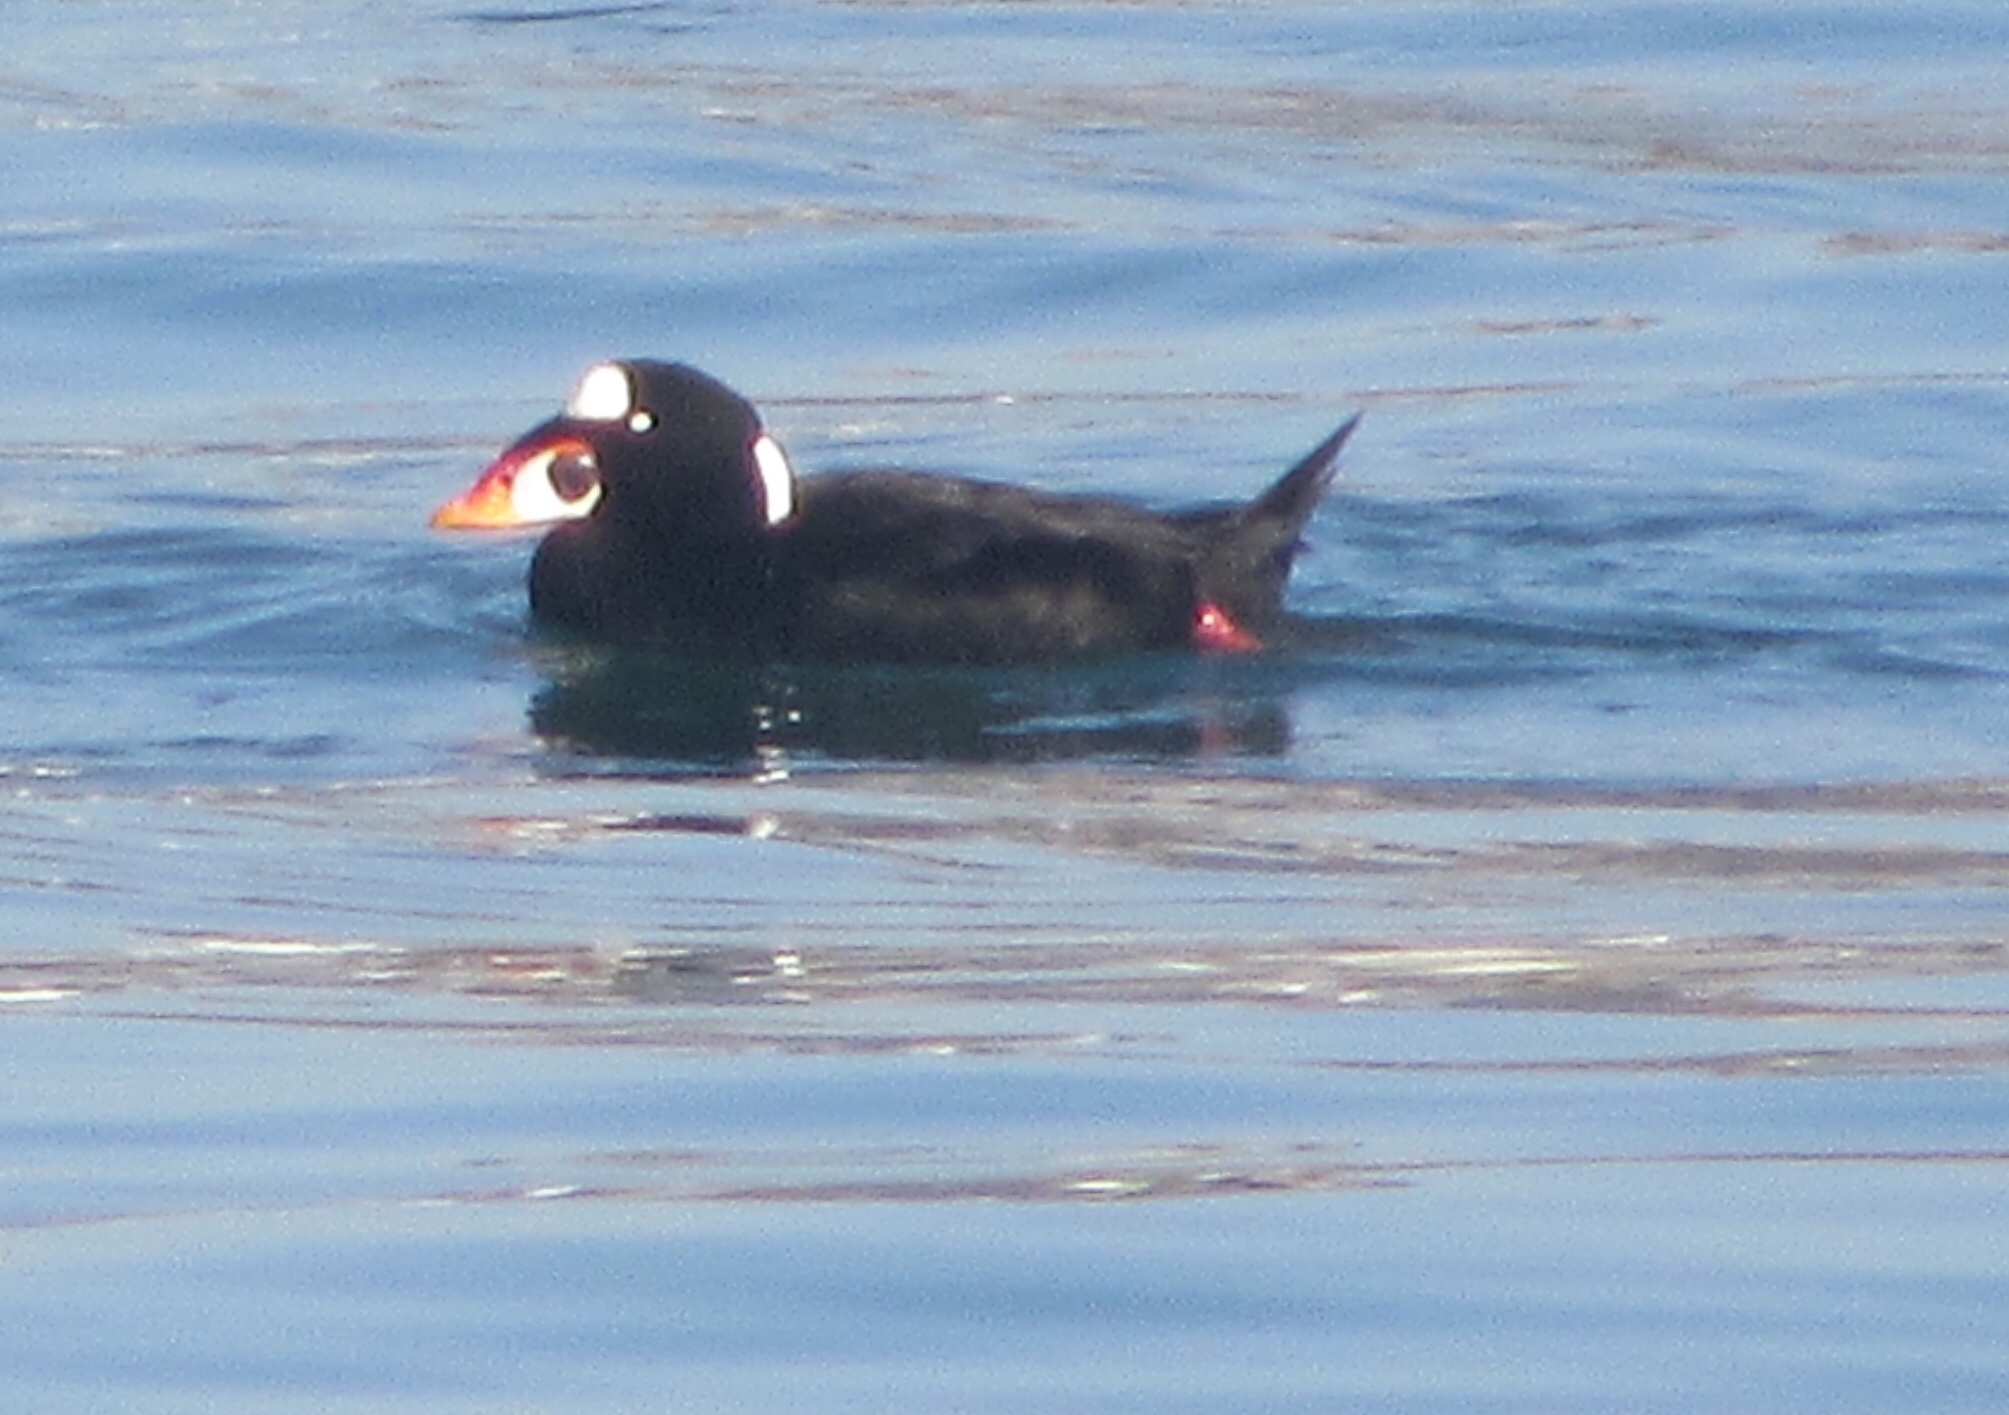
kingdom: Animalia
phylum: Chordata
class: Aves
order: Anseriformes
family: Anatidae
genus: Melanitta
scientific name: Melanitta perspicillata
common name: Surf scoter
